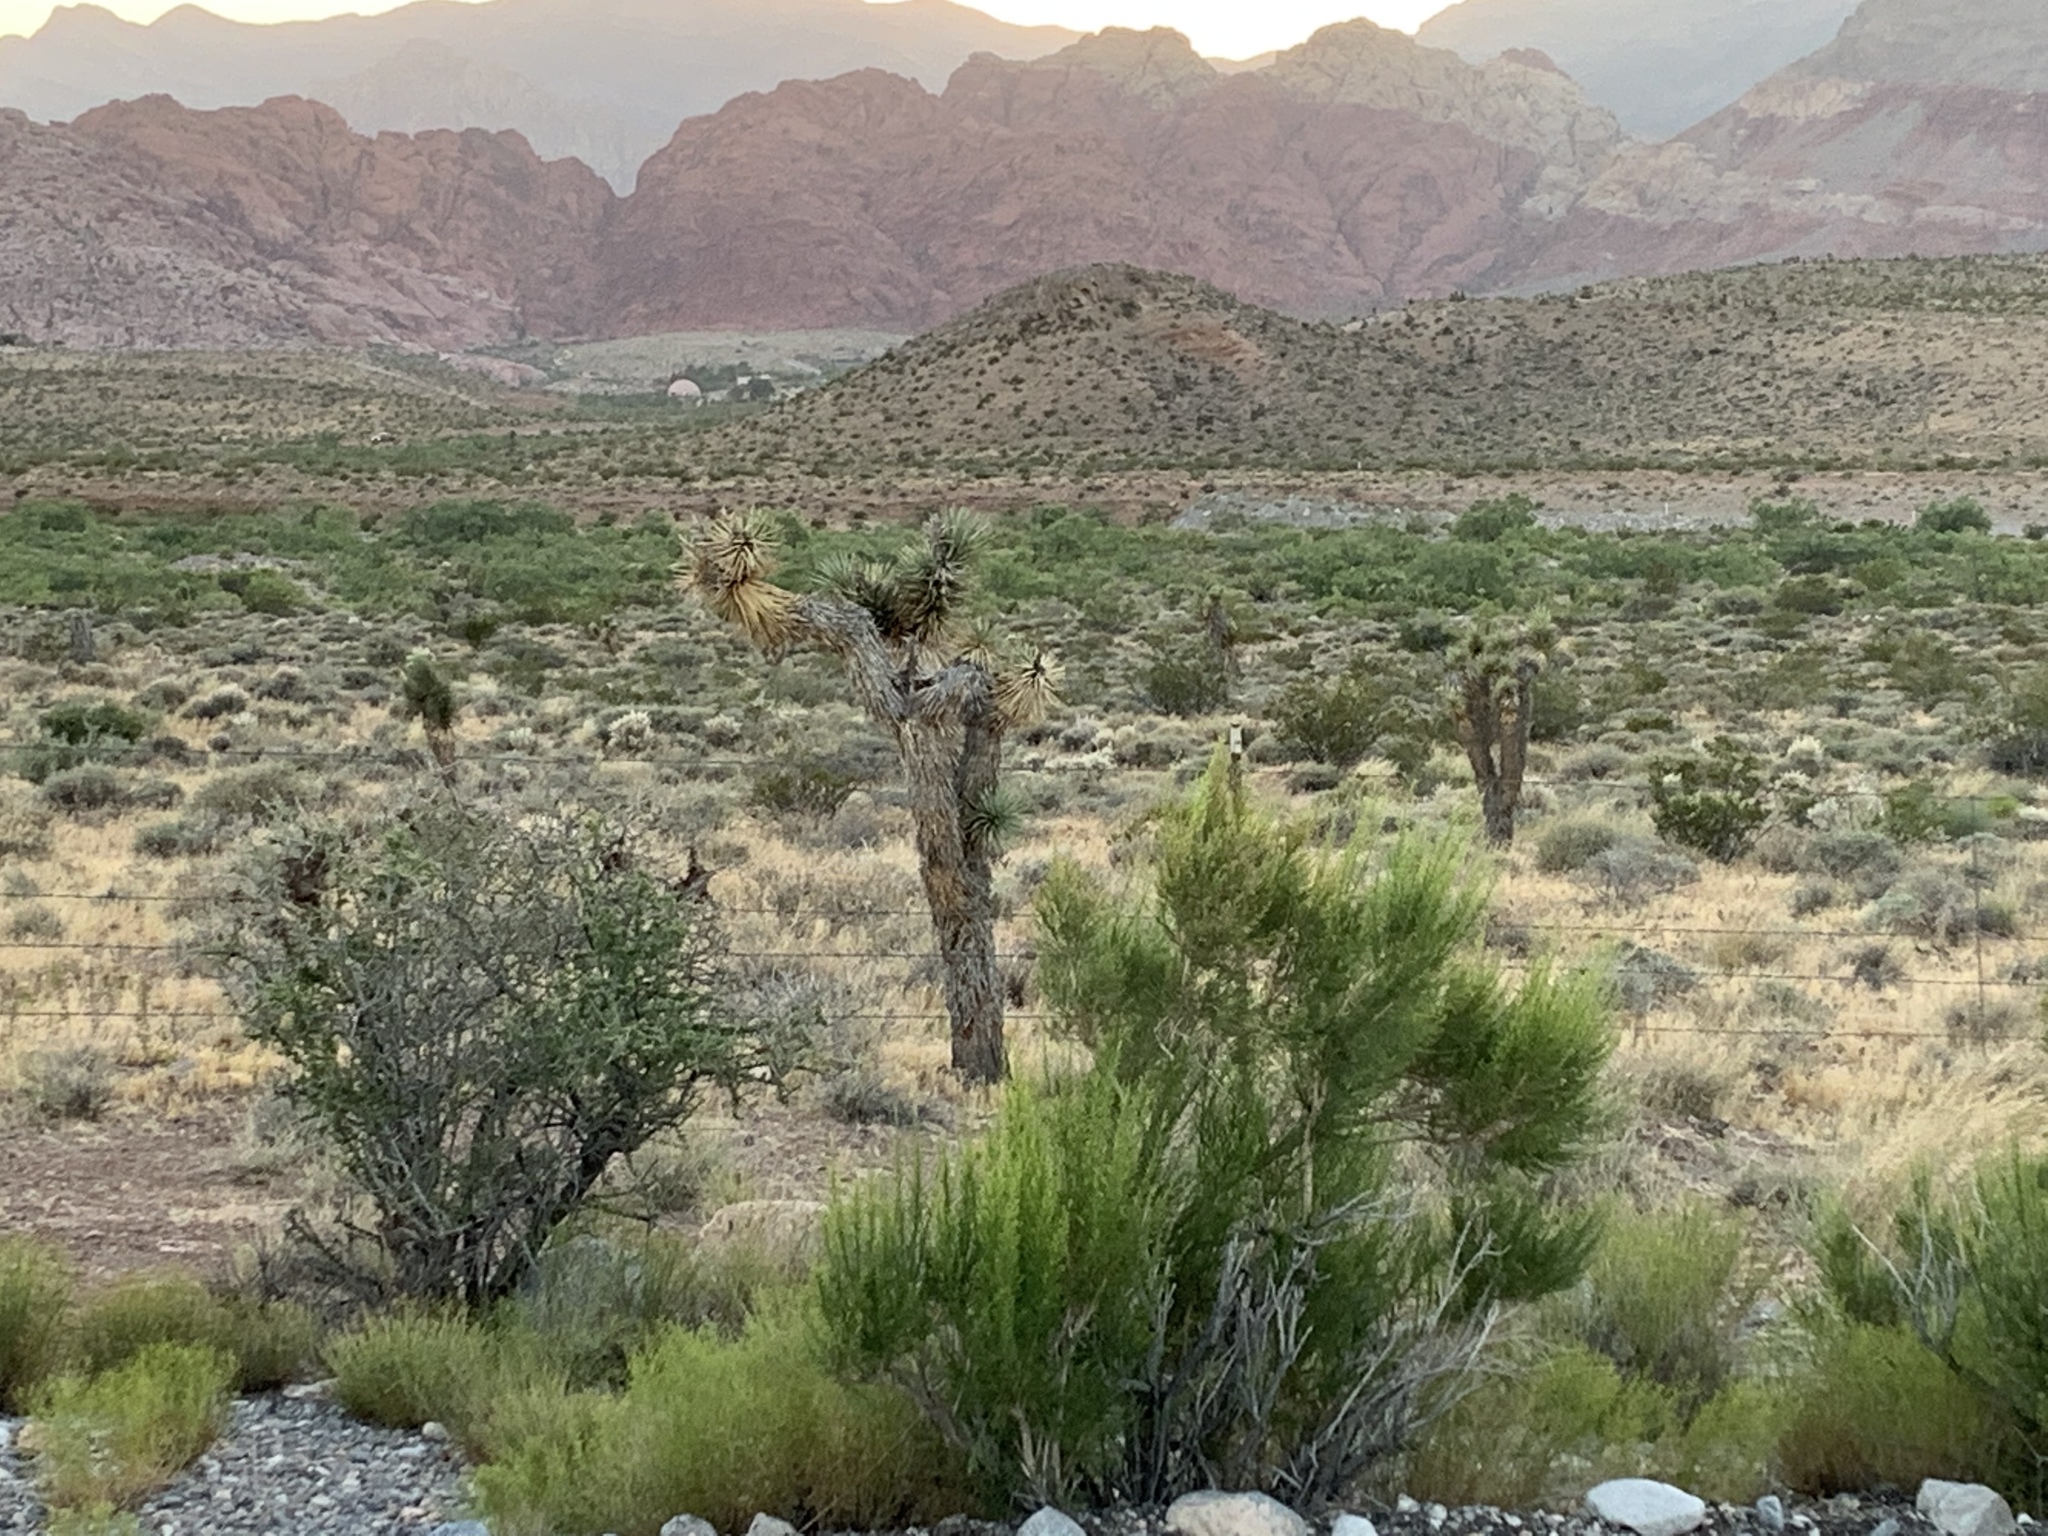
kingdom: Plantae
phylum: Tracheophyta
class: Liliopsida
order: Asparagales
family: Asparagaceae
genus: Yucca
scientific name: Yucca brevifolia
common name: Joshua tree
